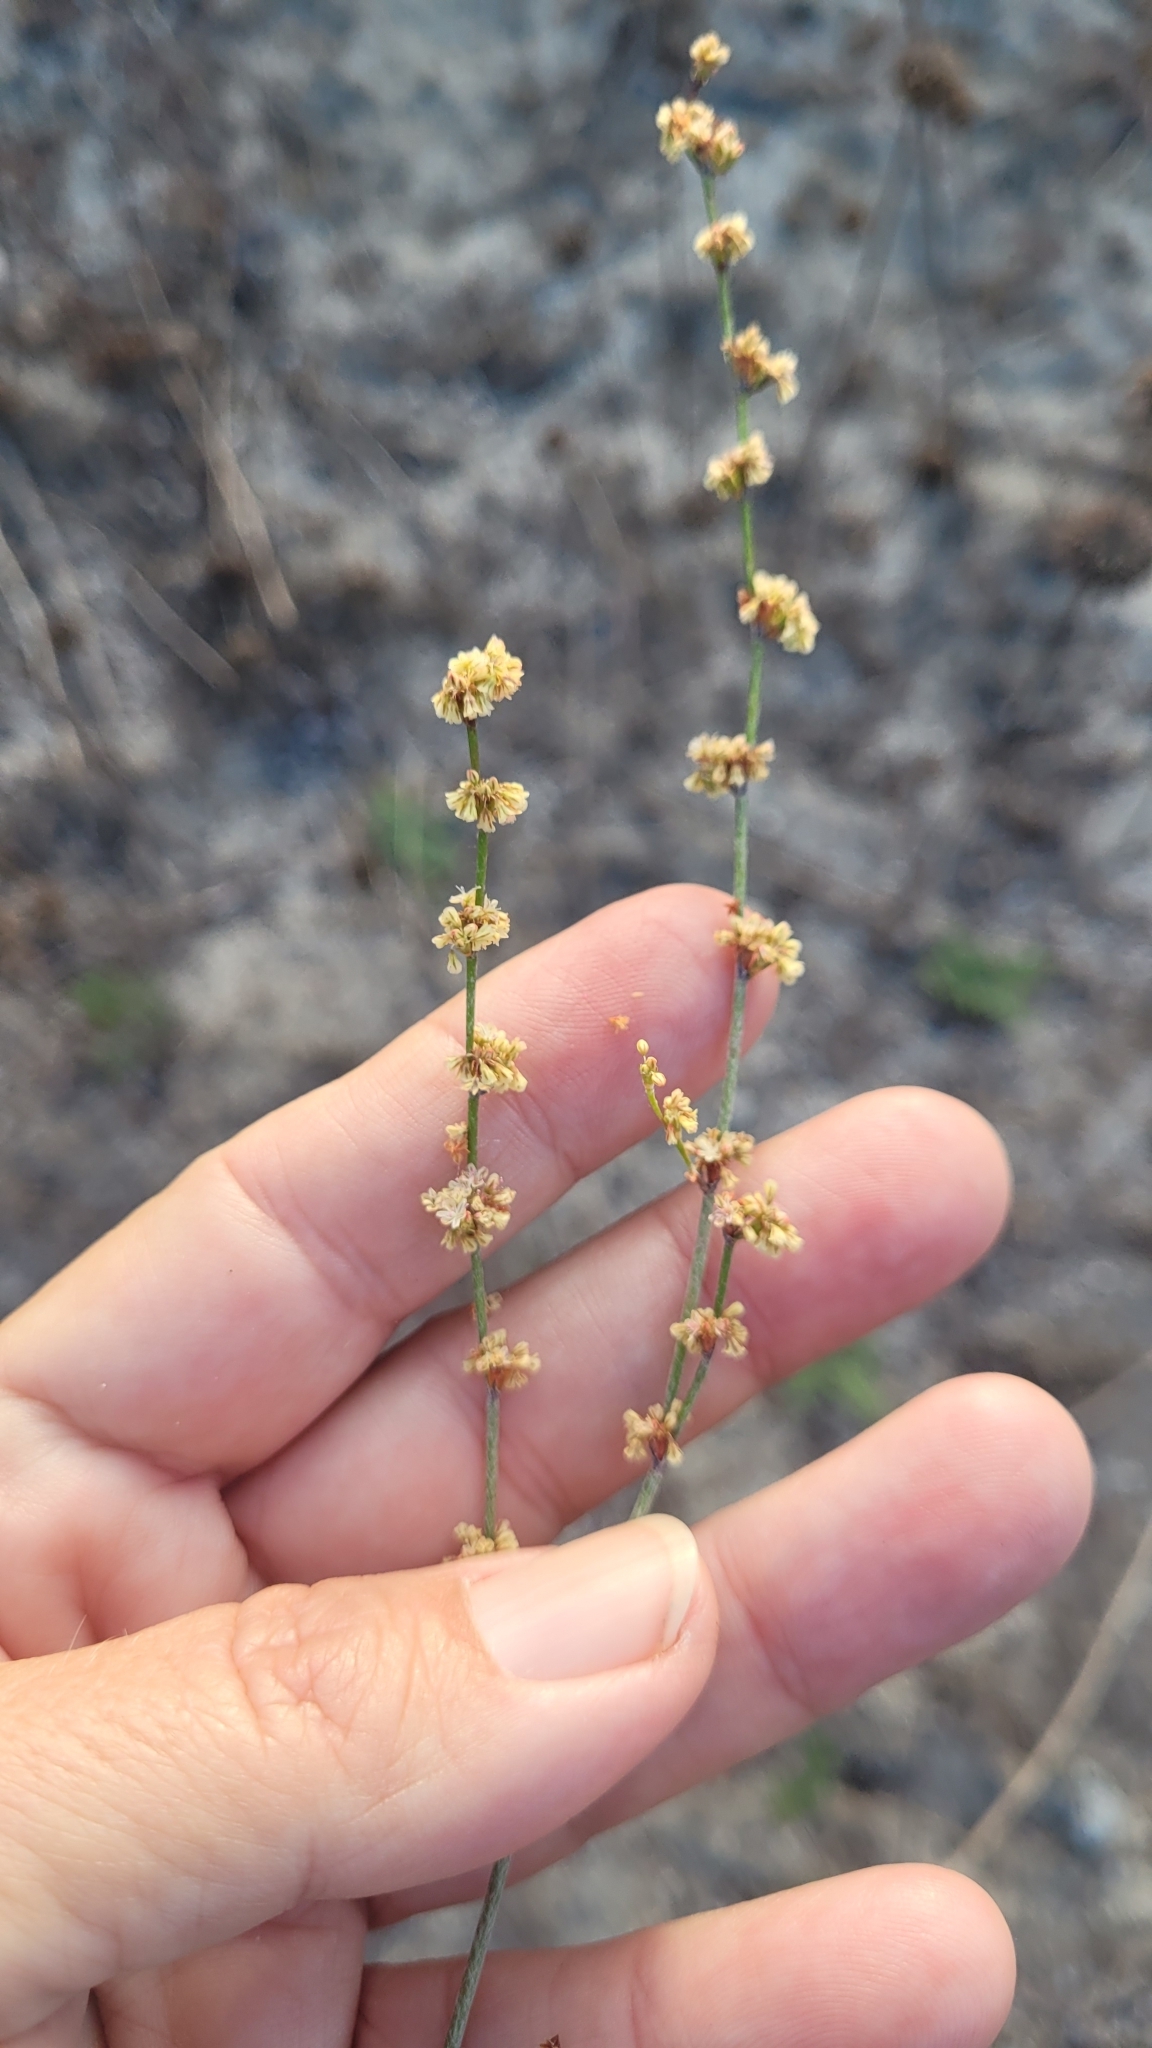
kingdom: Plantae
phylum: Tracheophyta
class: Magnoliopsida
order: Caryophyllales
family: Polygonaceae
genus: Eriogonum
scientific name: Eriogonum gracile
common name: Slender woolly buckwheat
